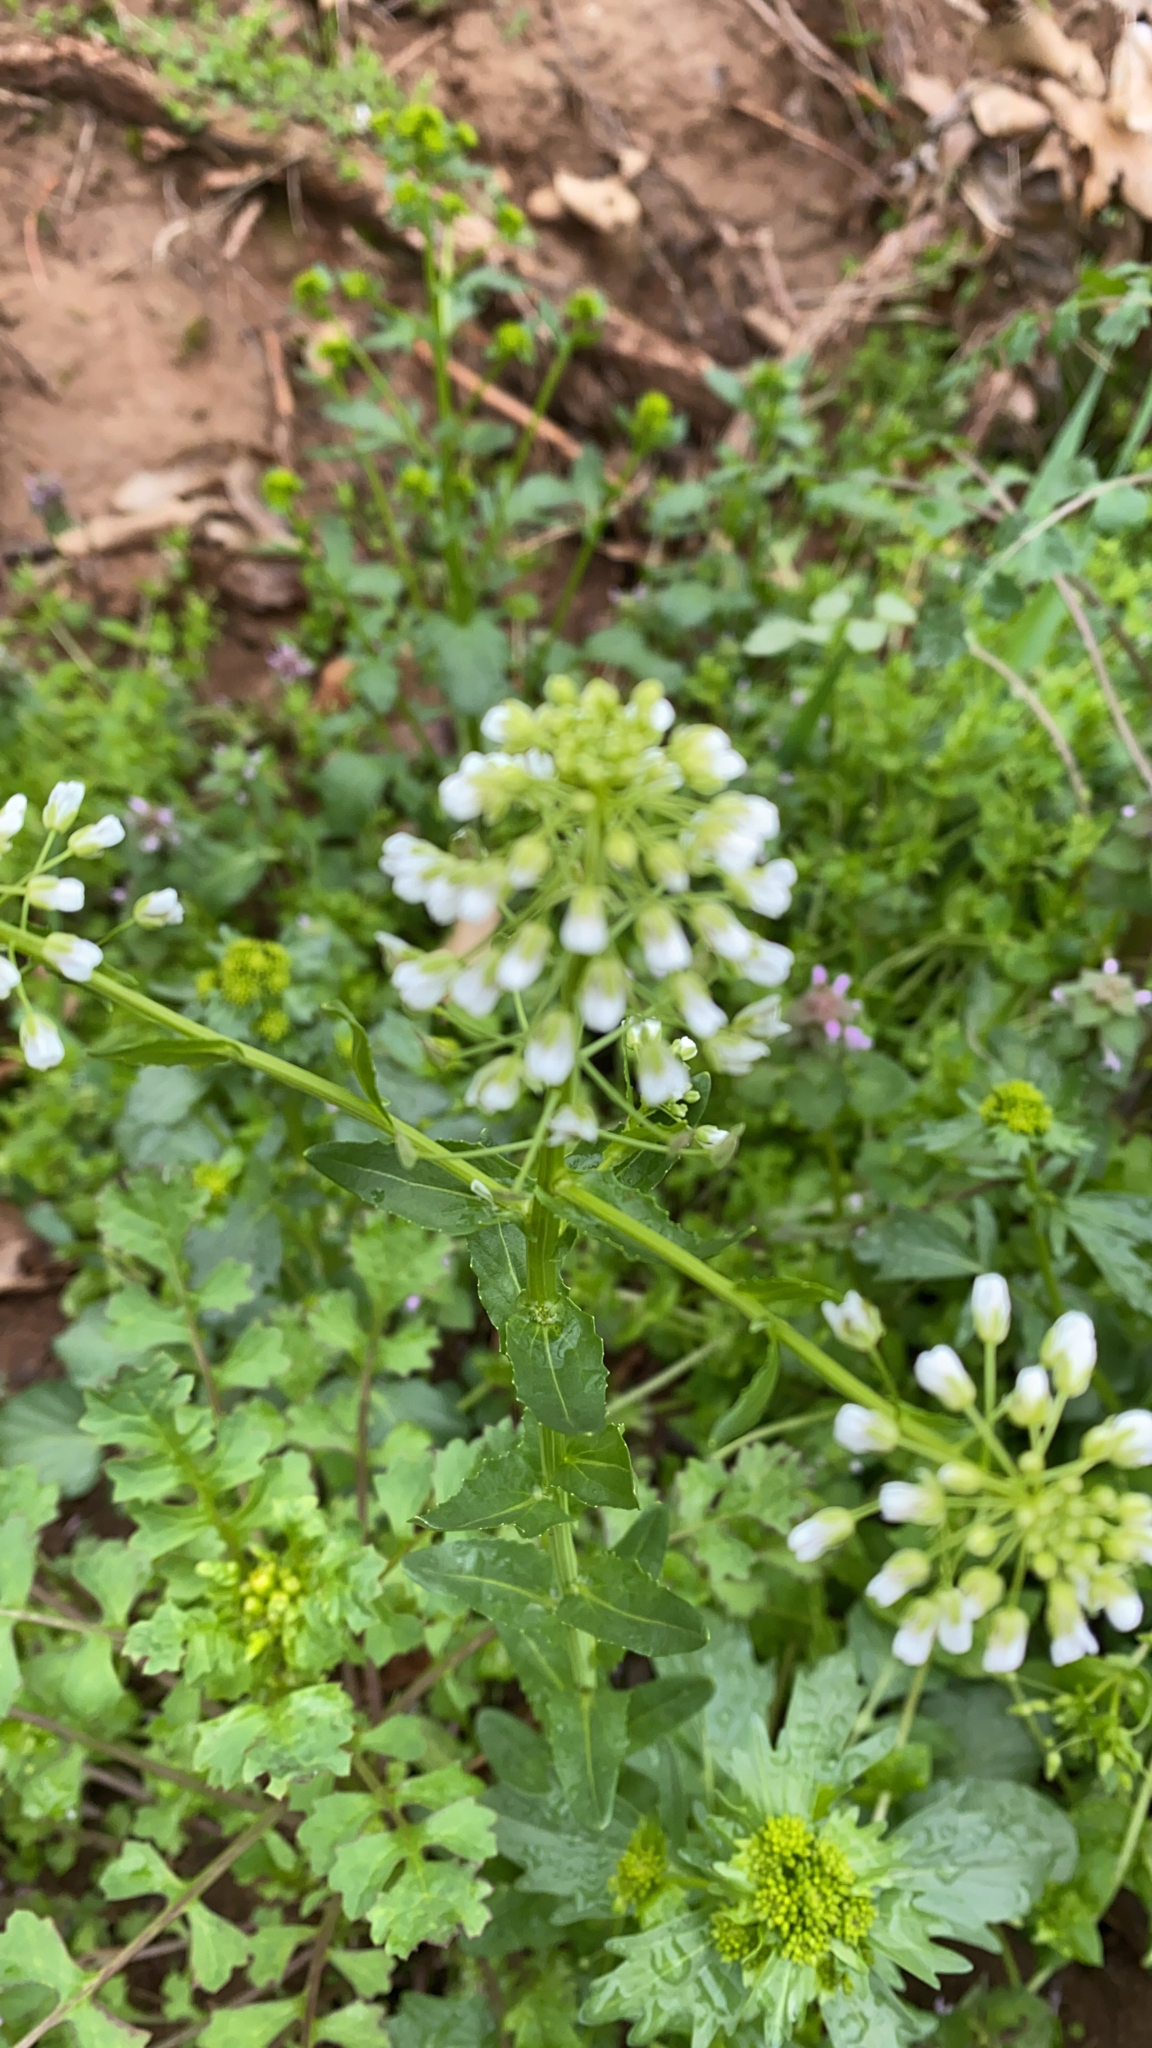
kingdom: Plantae
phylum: Tracheophyta
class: Magnoliopsida
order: Brassicales
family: Brassicaceae
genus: Thlaspi
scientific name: Thlaspi arvense
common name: Field pennycress
